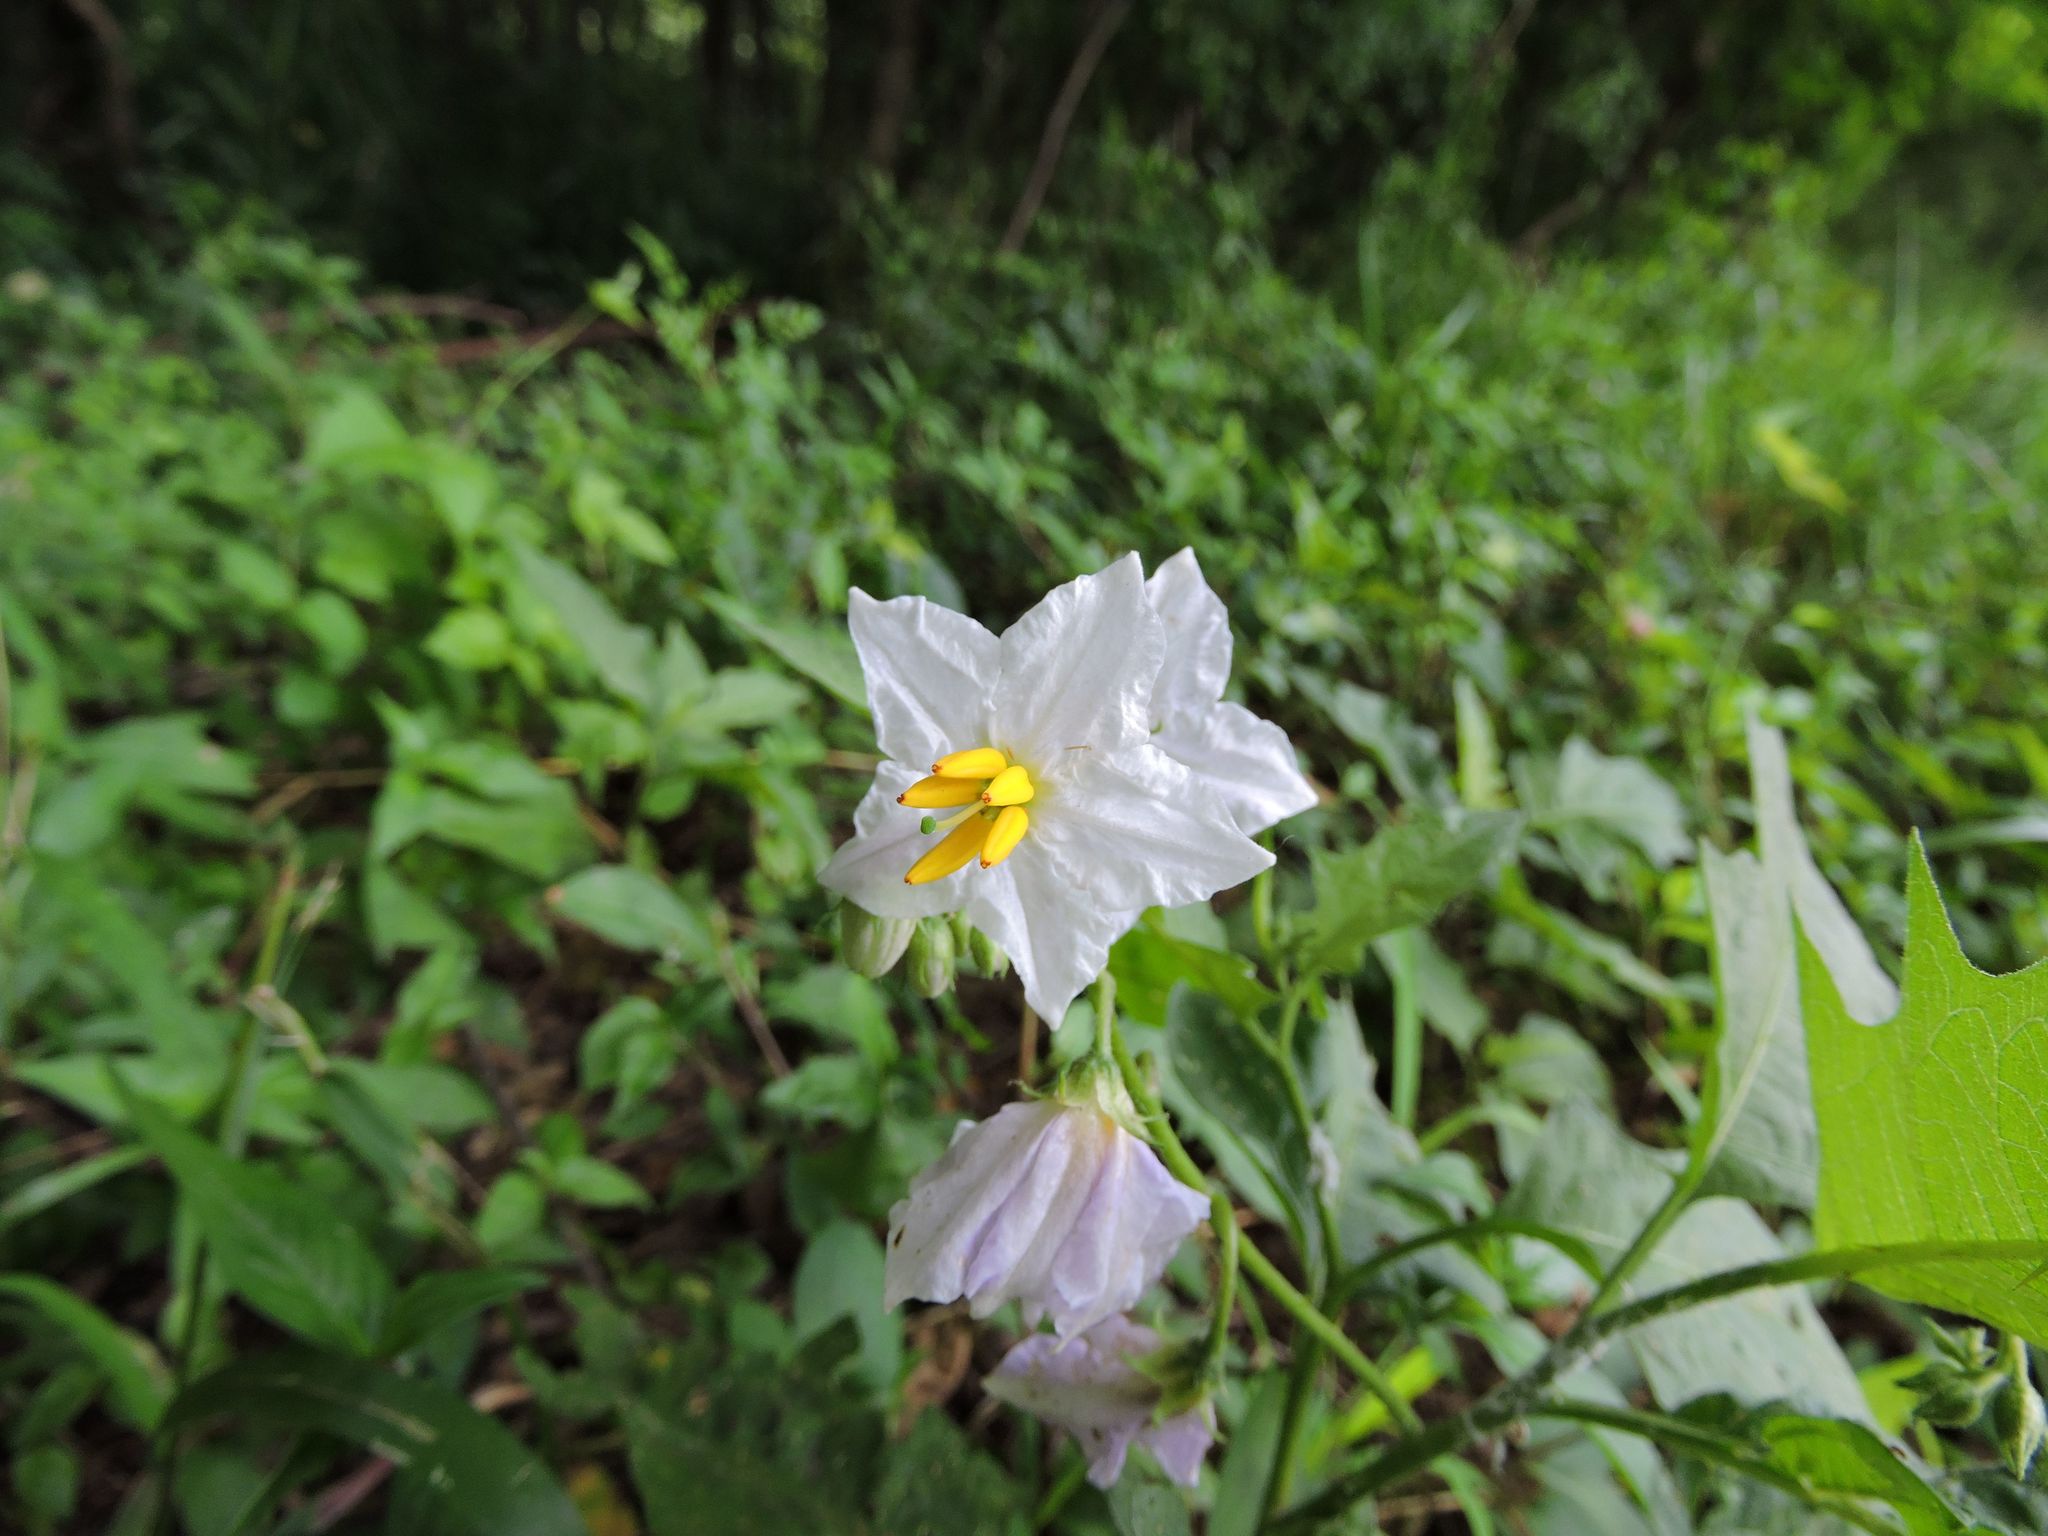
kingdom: Plantae
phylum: Tracheophyta
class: Magnoliopsida
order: Solanales
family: Solanaceae
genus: Solanum
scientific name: Solanum carolinense
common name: Horse-nettle
